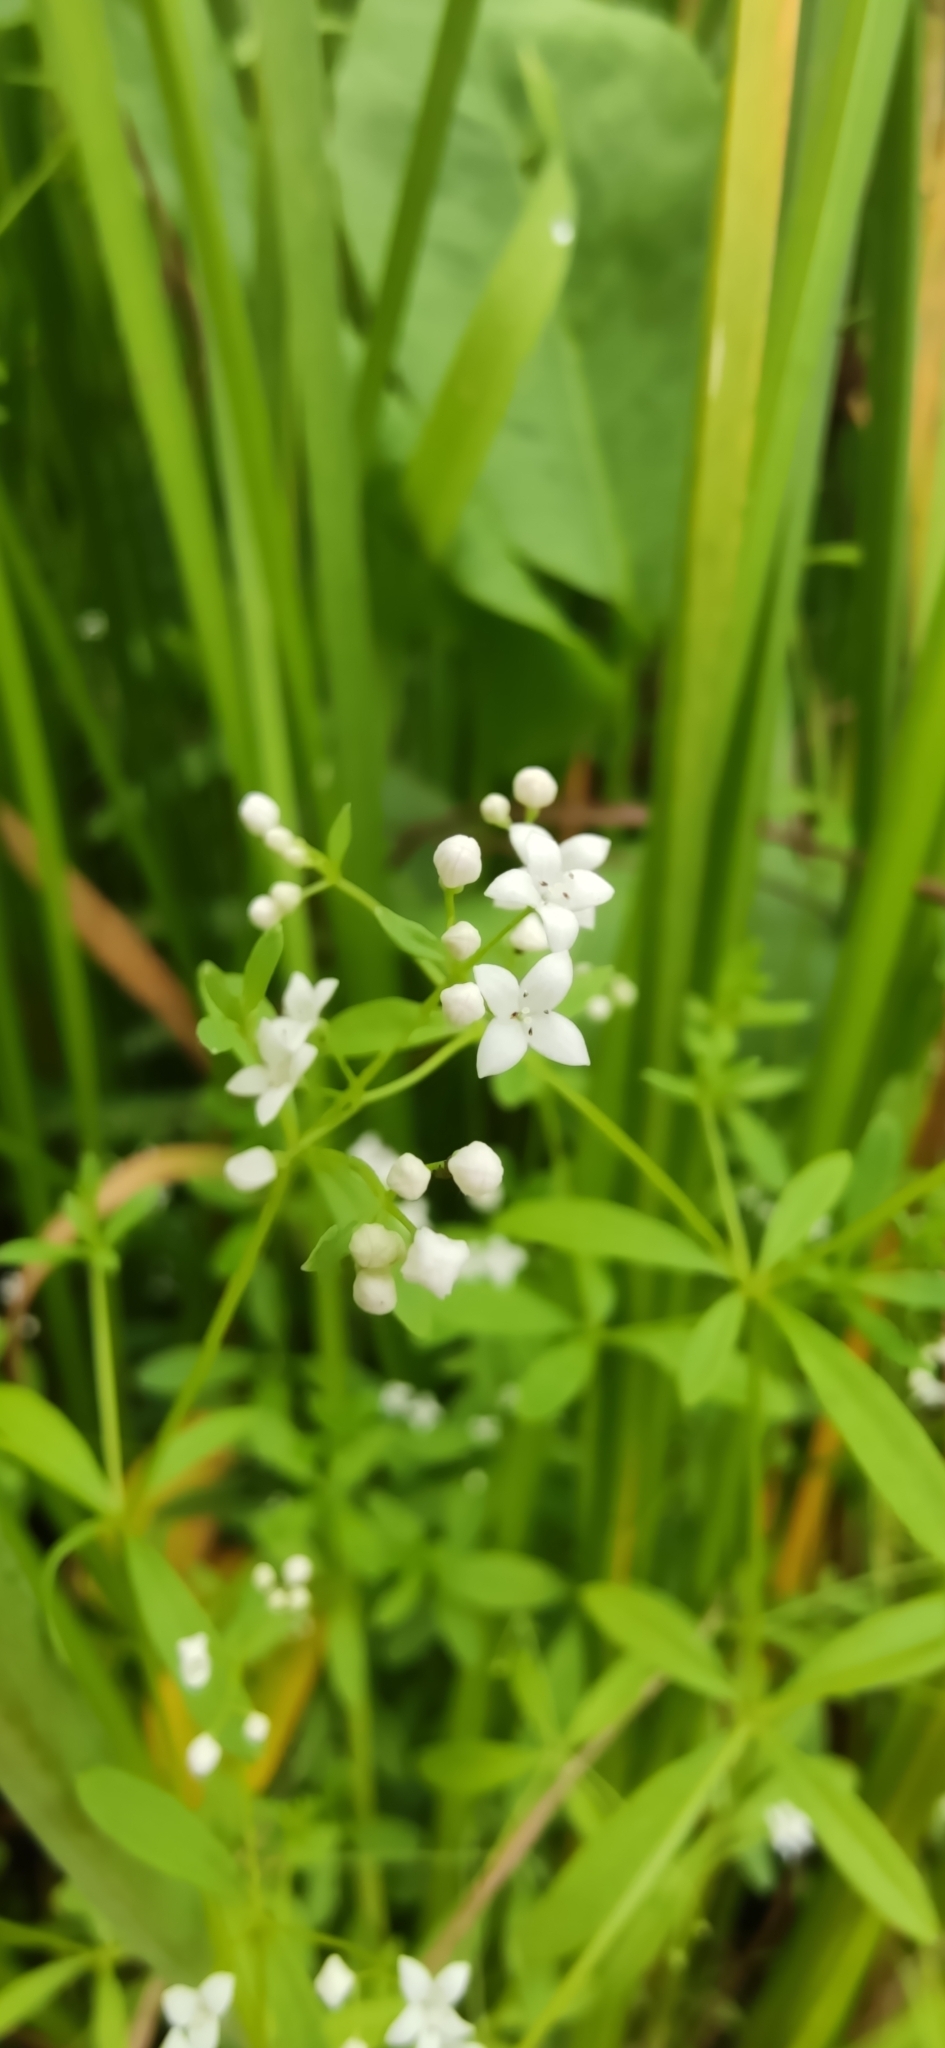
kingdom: Plantae
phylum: Tracheophyta
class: Magnoliopsida
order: Gentianales
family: Rubiaceae
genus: Galium
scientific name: Galium palustre
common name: Common marsh-bedstraw
